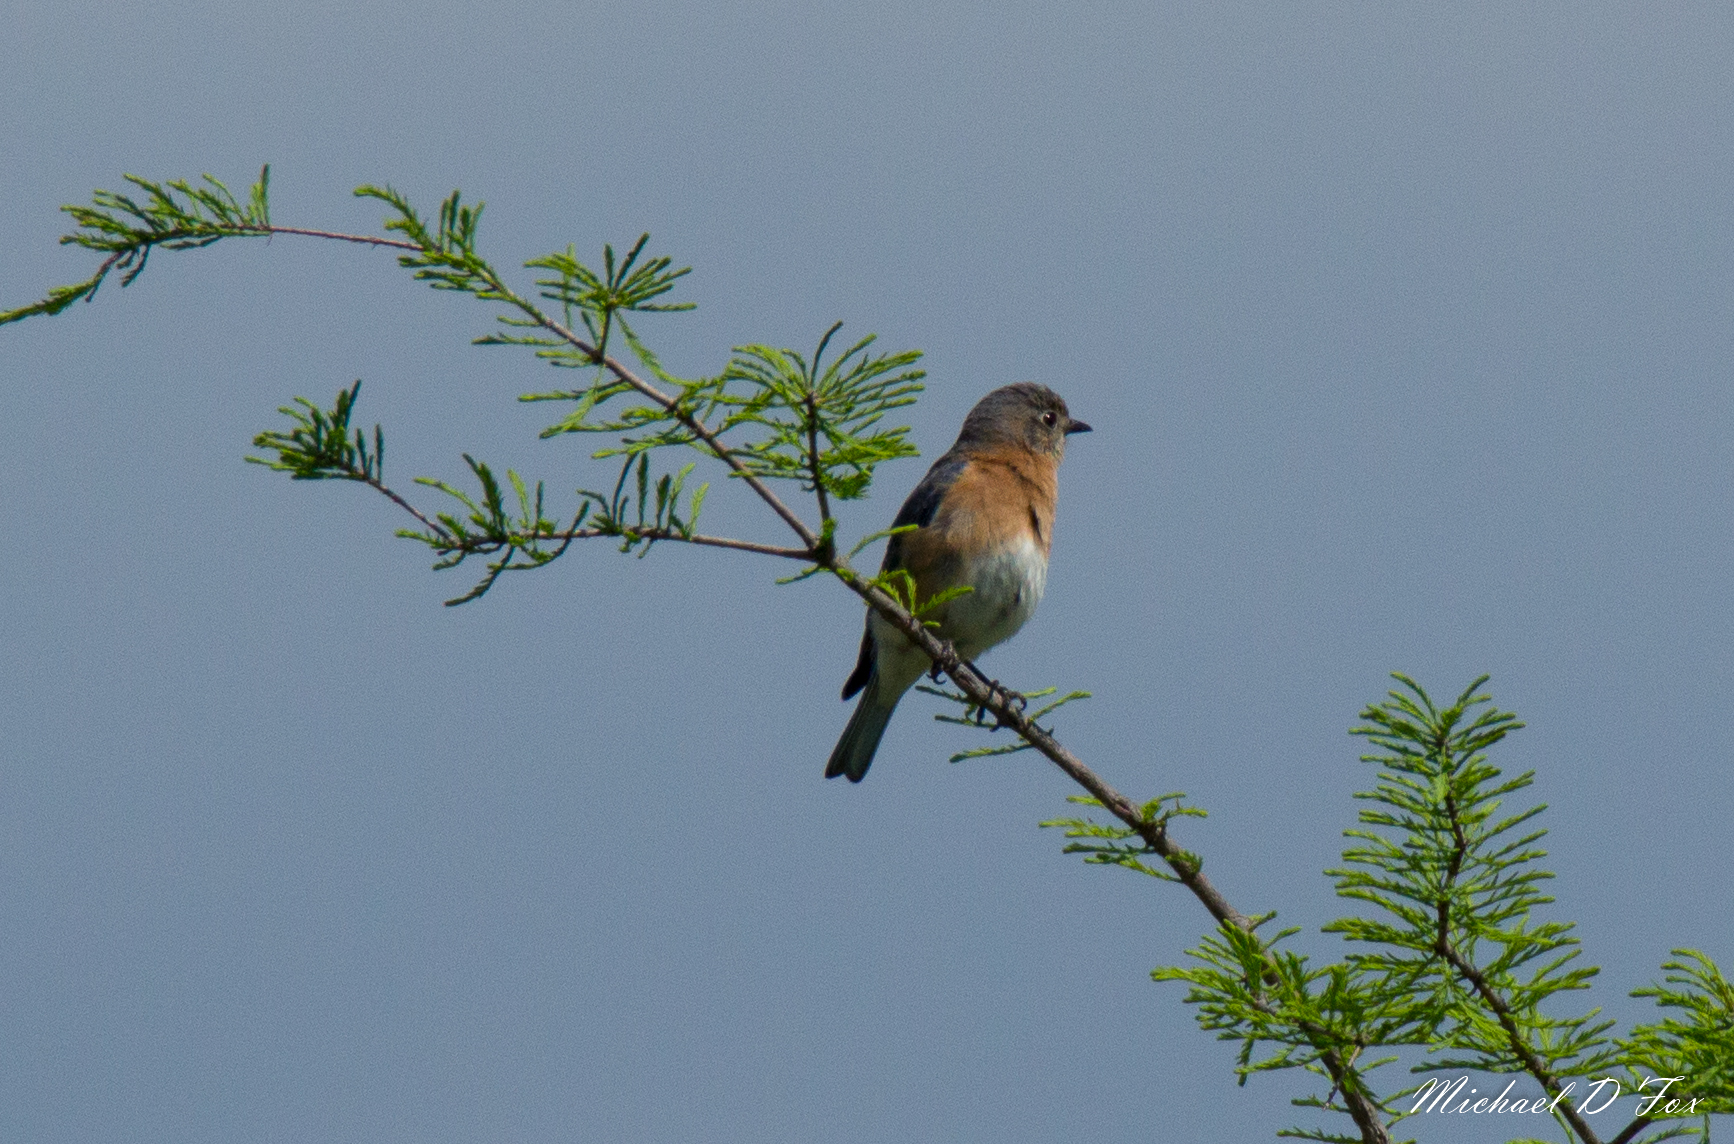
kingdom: Animalia
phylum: Chordata
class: Aves
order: Passeriformes
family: Turdidae
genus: Sialia
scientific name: Sialia sialis
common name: Eastern bluebird
